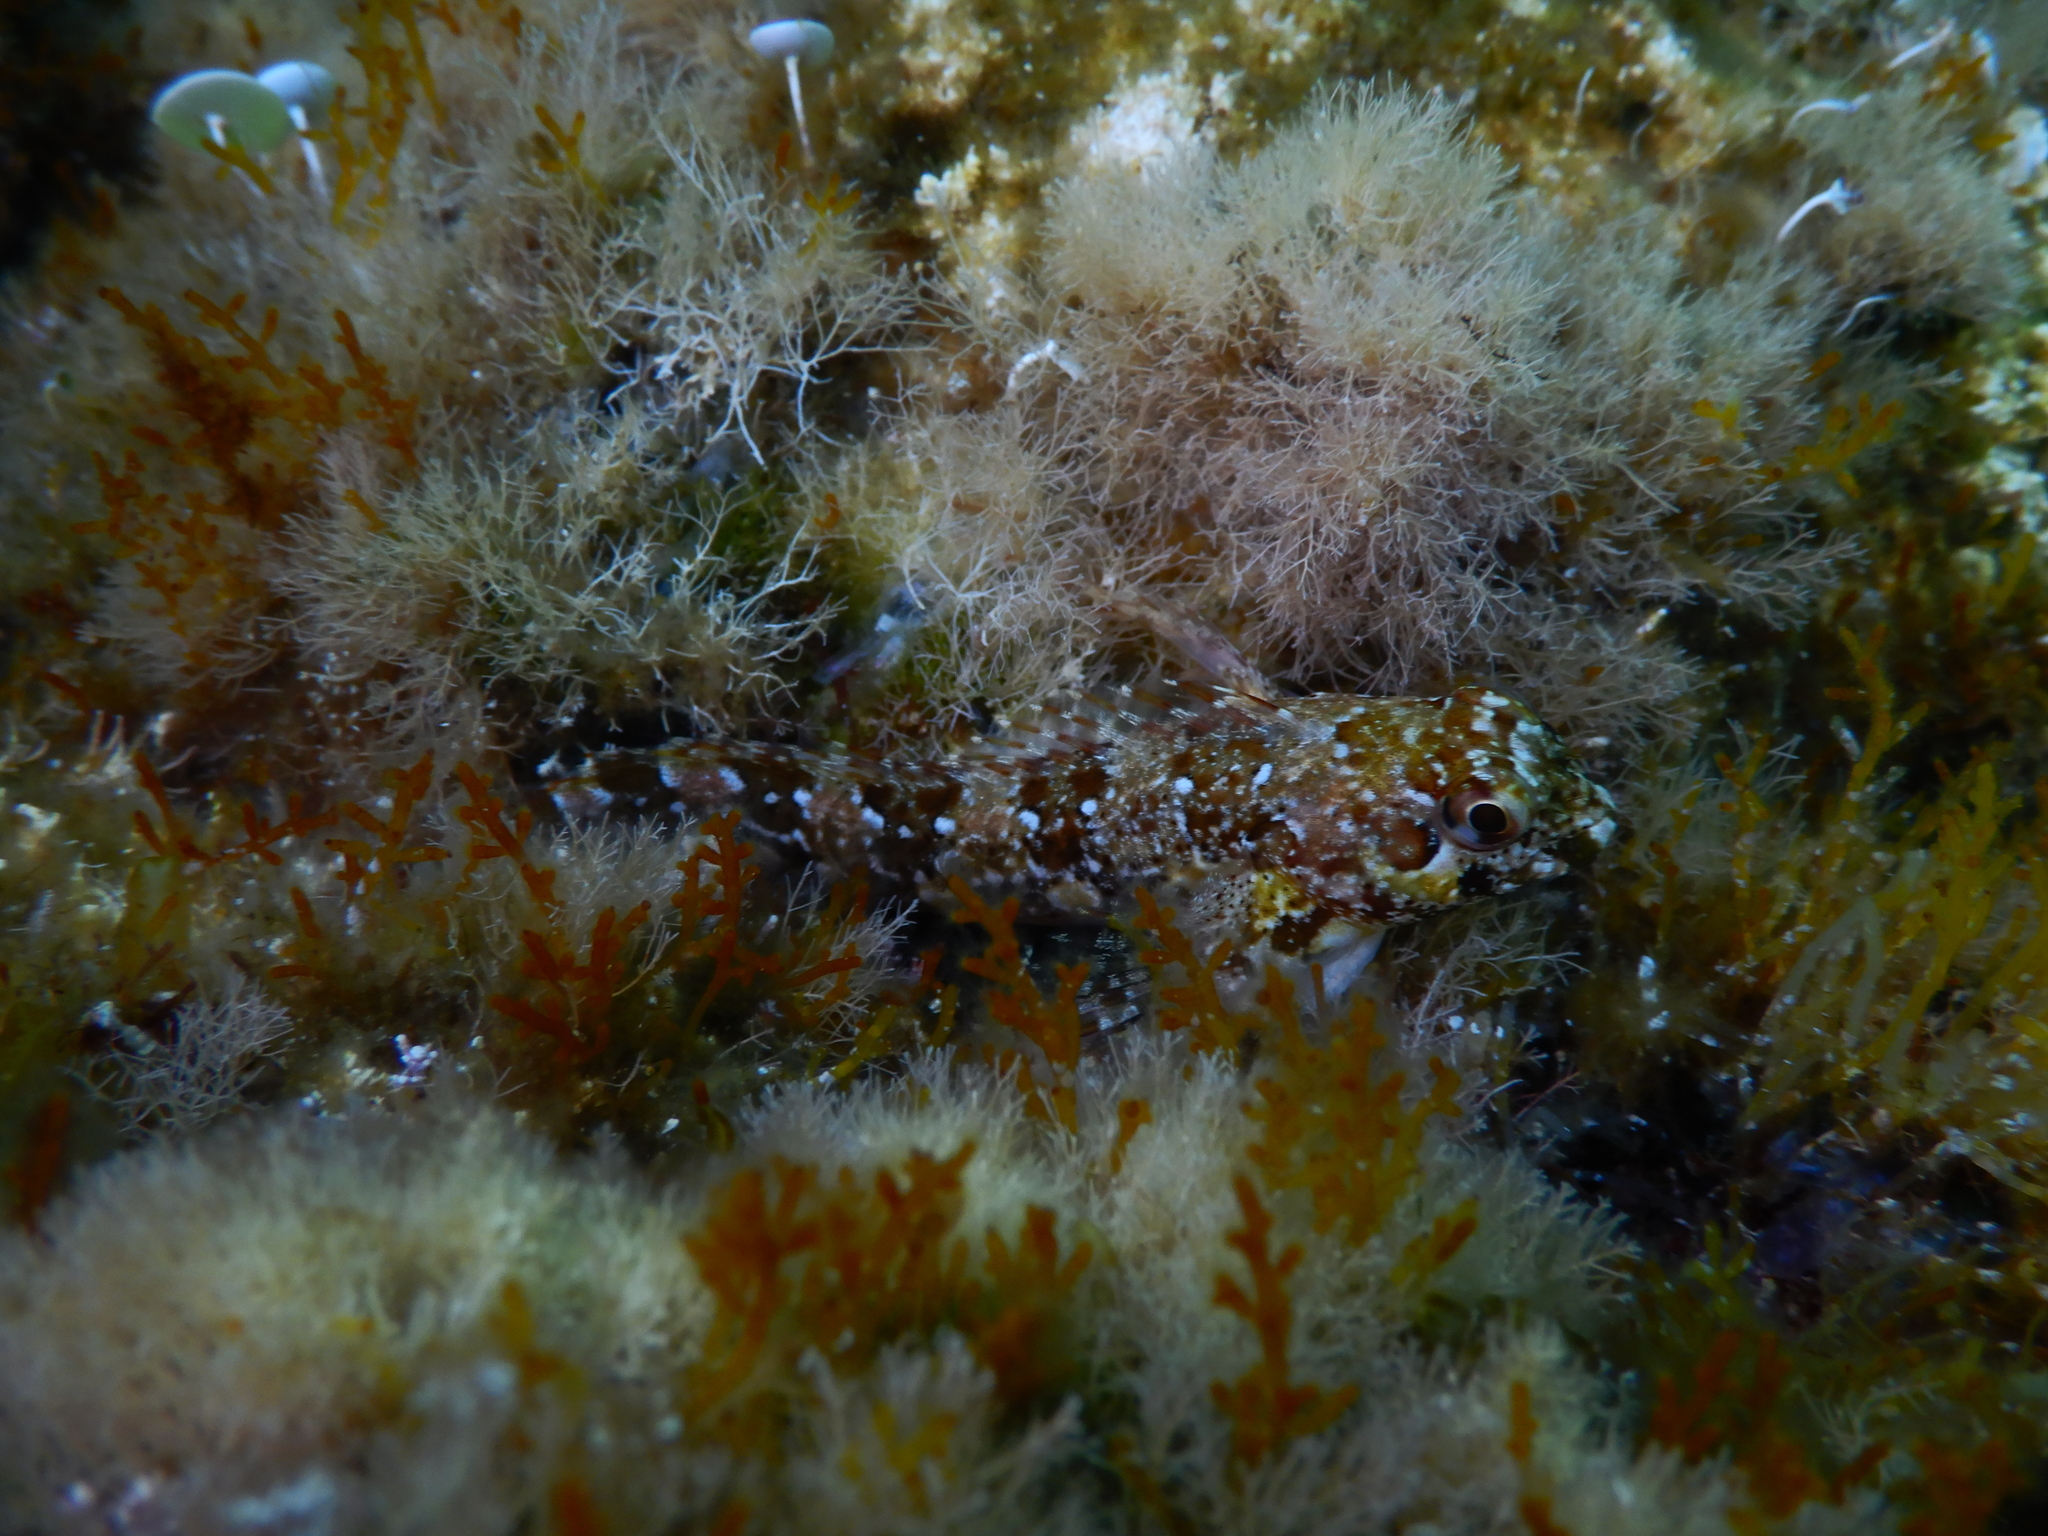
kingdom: Animalia
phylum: Chordata
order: Perciformes
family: Blenniidae
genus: Lipophrys
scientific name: Lipophrys trigloides
